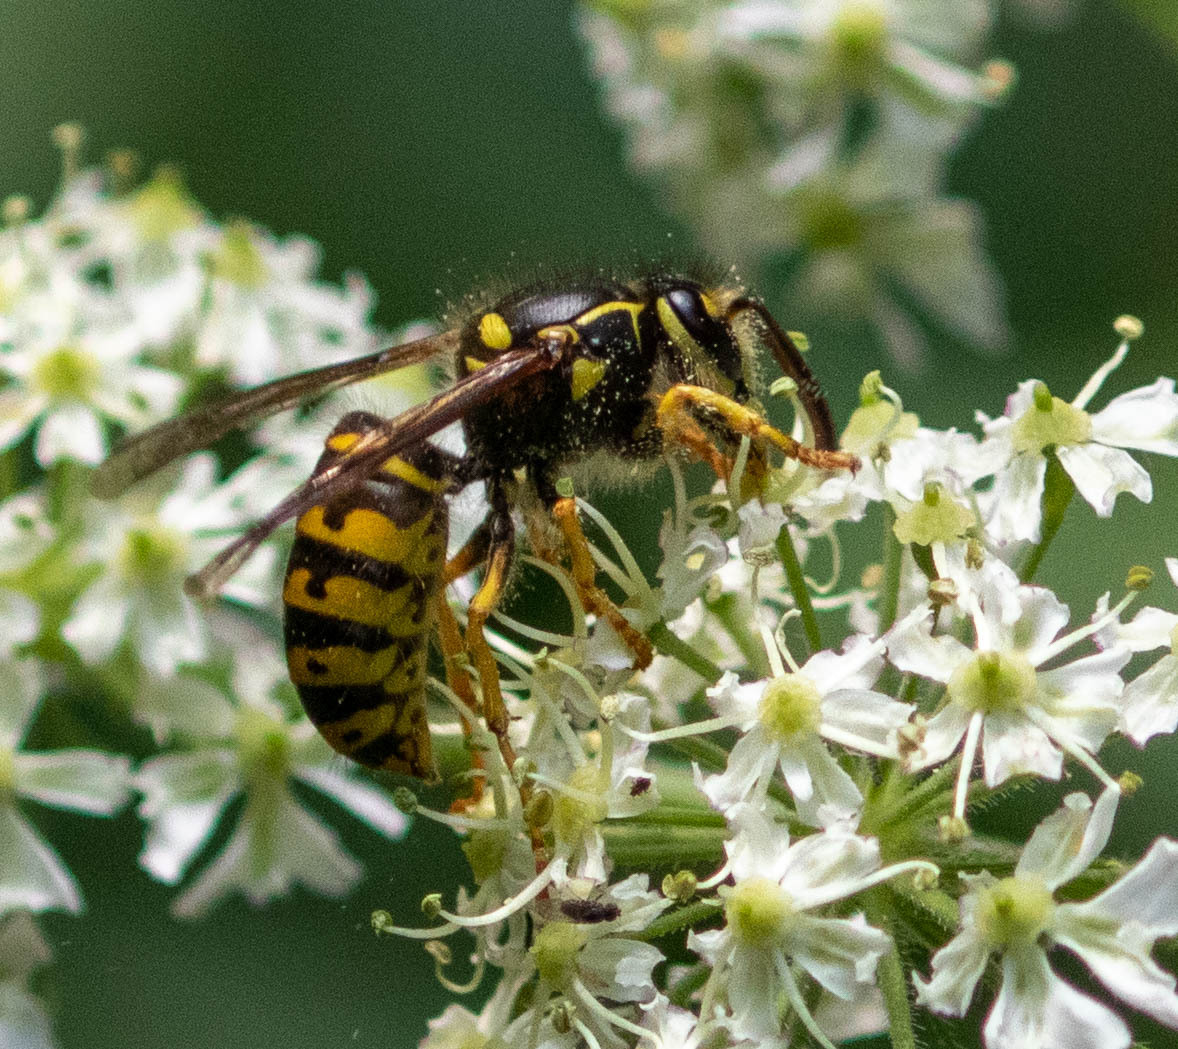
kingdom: Animalia
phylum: Arthropoda
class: Insecta
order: Hymenoptera
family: Vespidae
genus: Dolichovespula
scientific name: Dolichovespula arenaria
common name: Aerial yellowjacket
